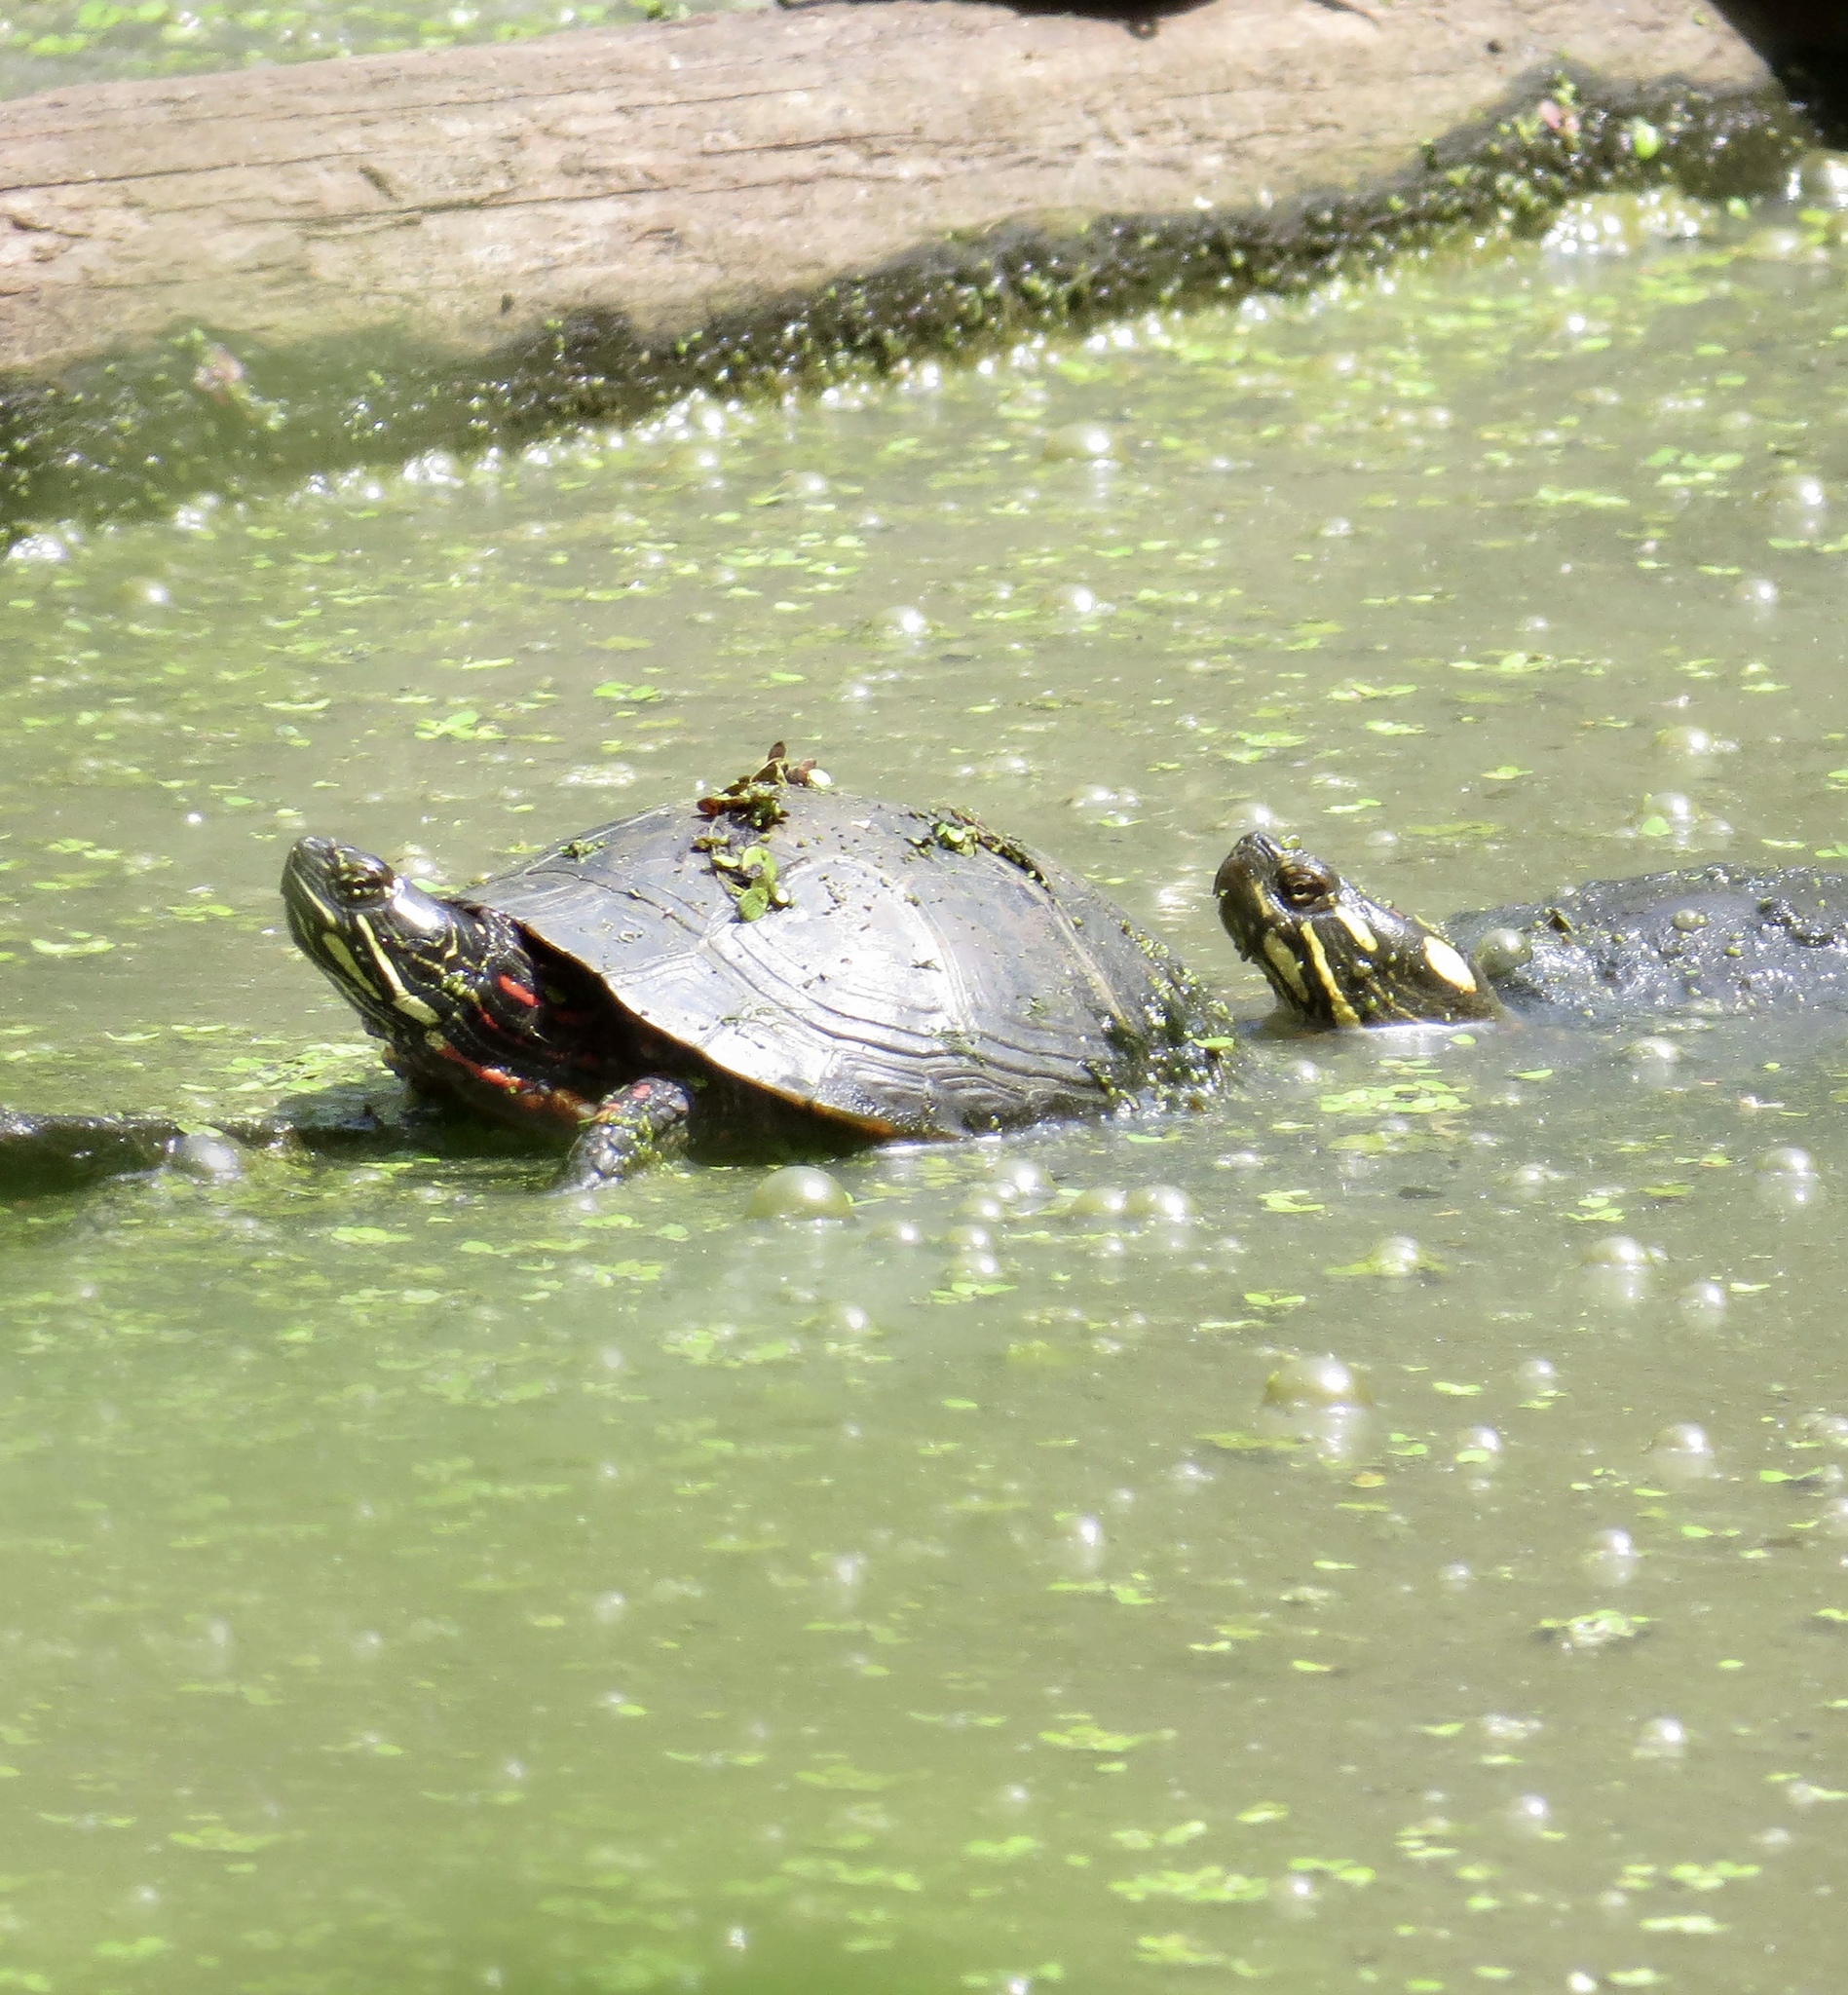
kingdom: Animalia
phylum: Chordata
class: Testudines
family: Emydidae
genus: Chrysemys
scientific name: Chrysemys picta
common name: Painted turtle
